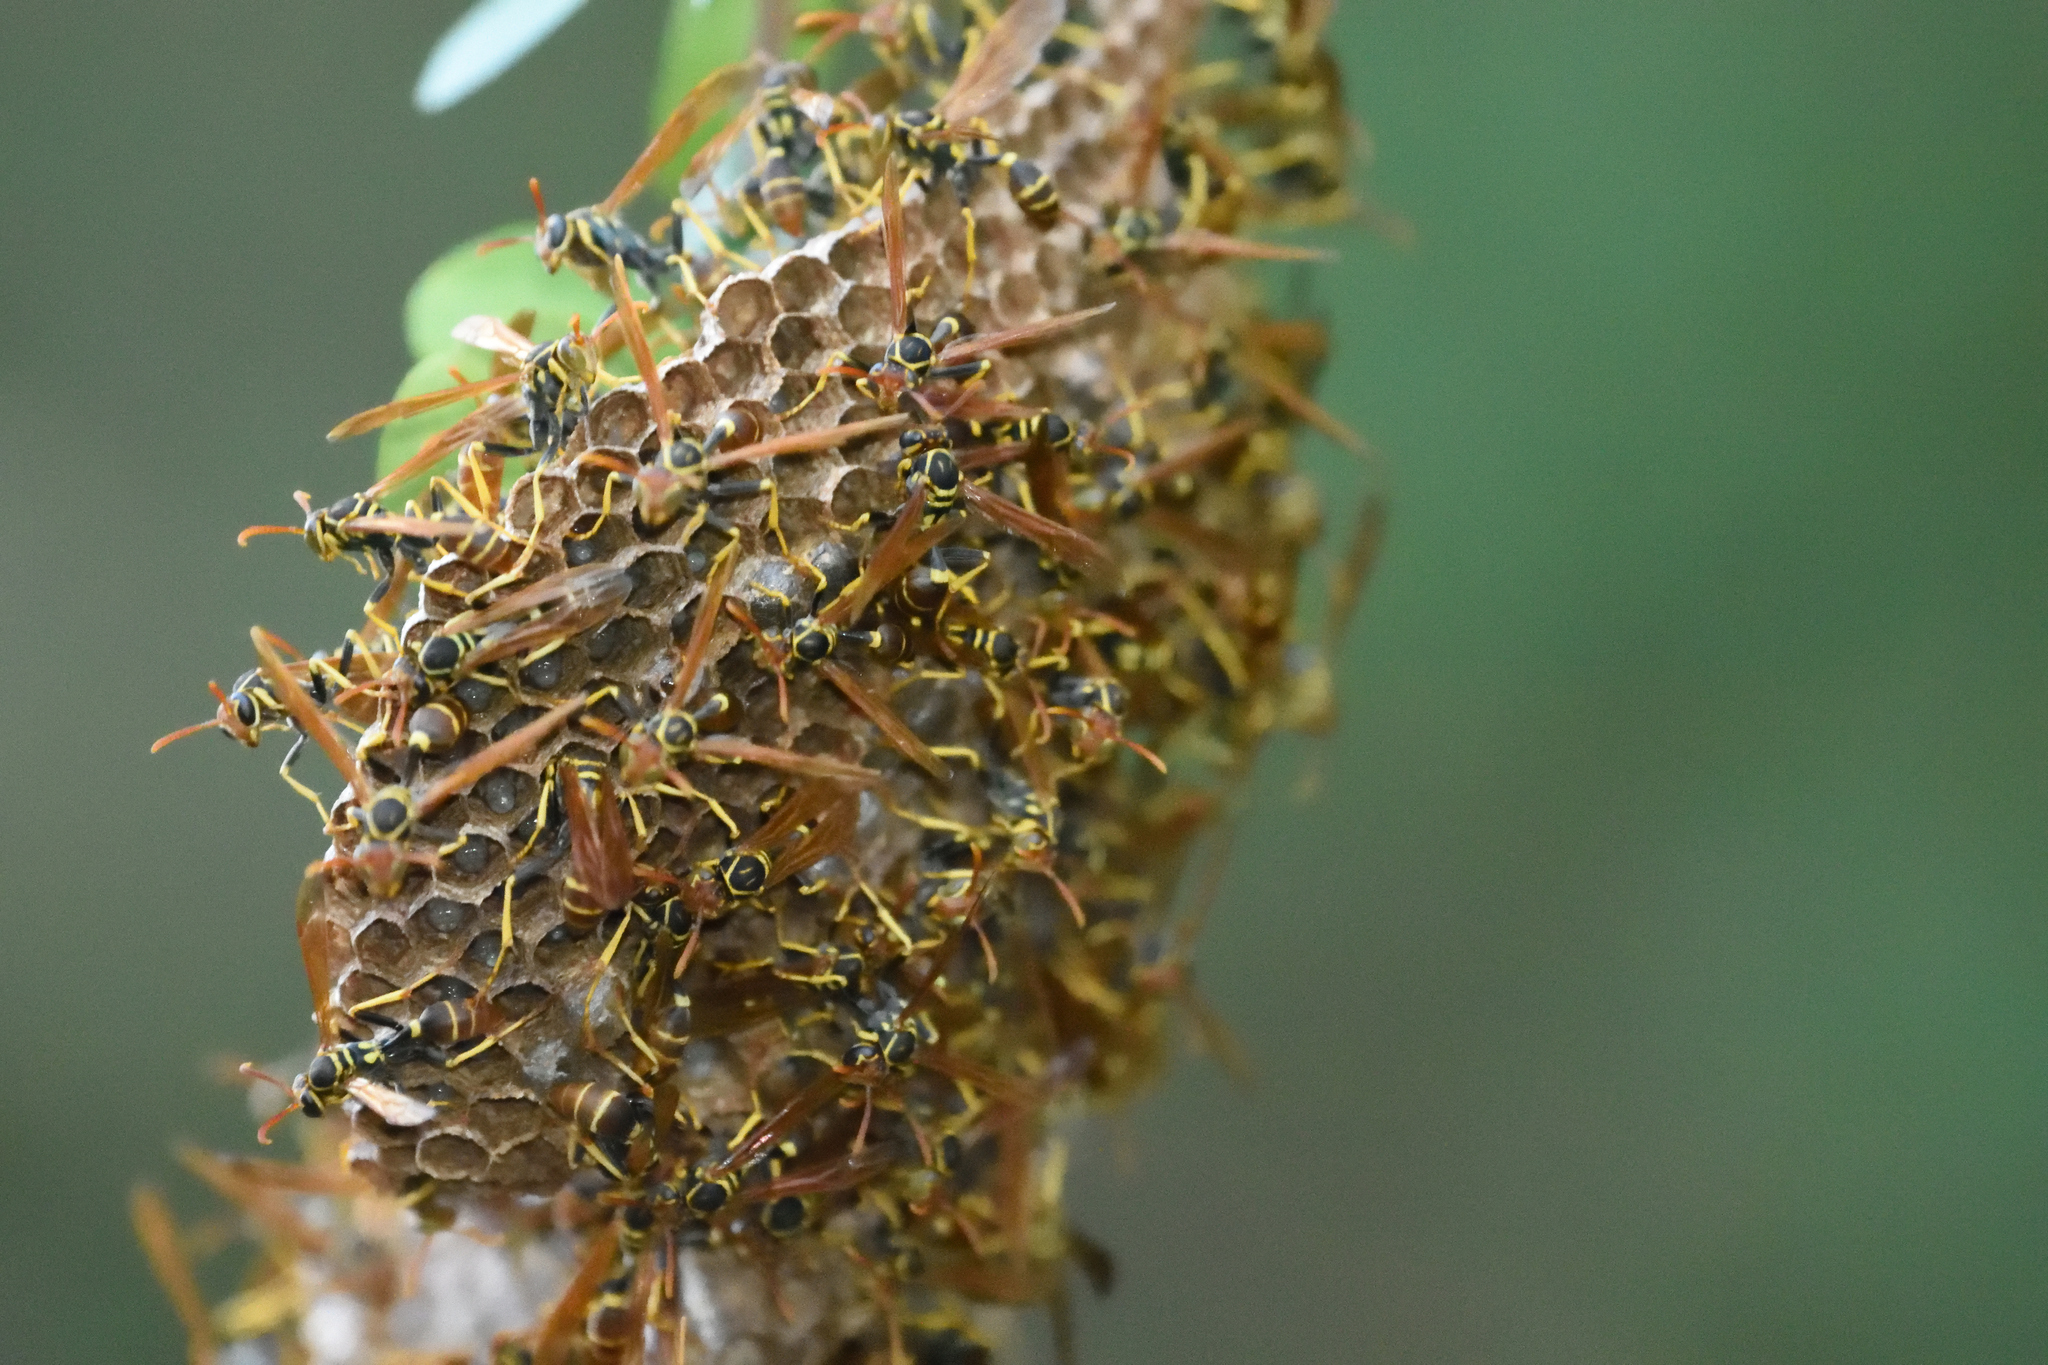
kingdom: Animalia
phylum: Arthropoda
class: Insecta
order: Hymenoptera
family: Vespidae
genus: Mischocyttarus
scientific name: Mischocyttarus phthisicus
